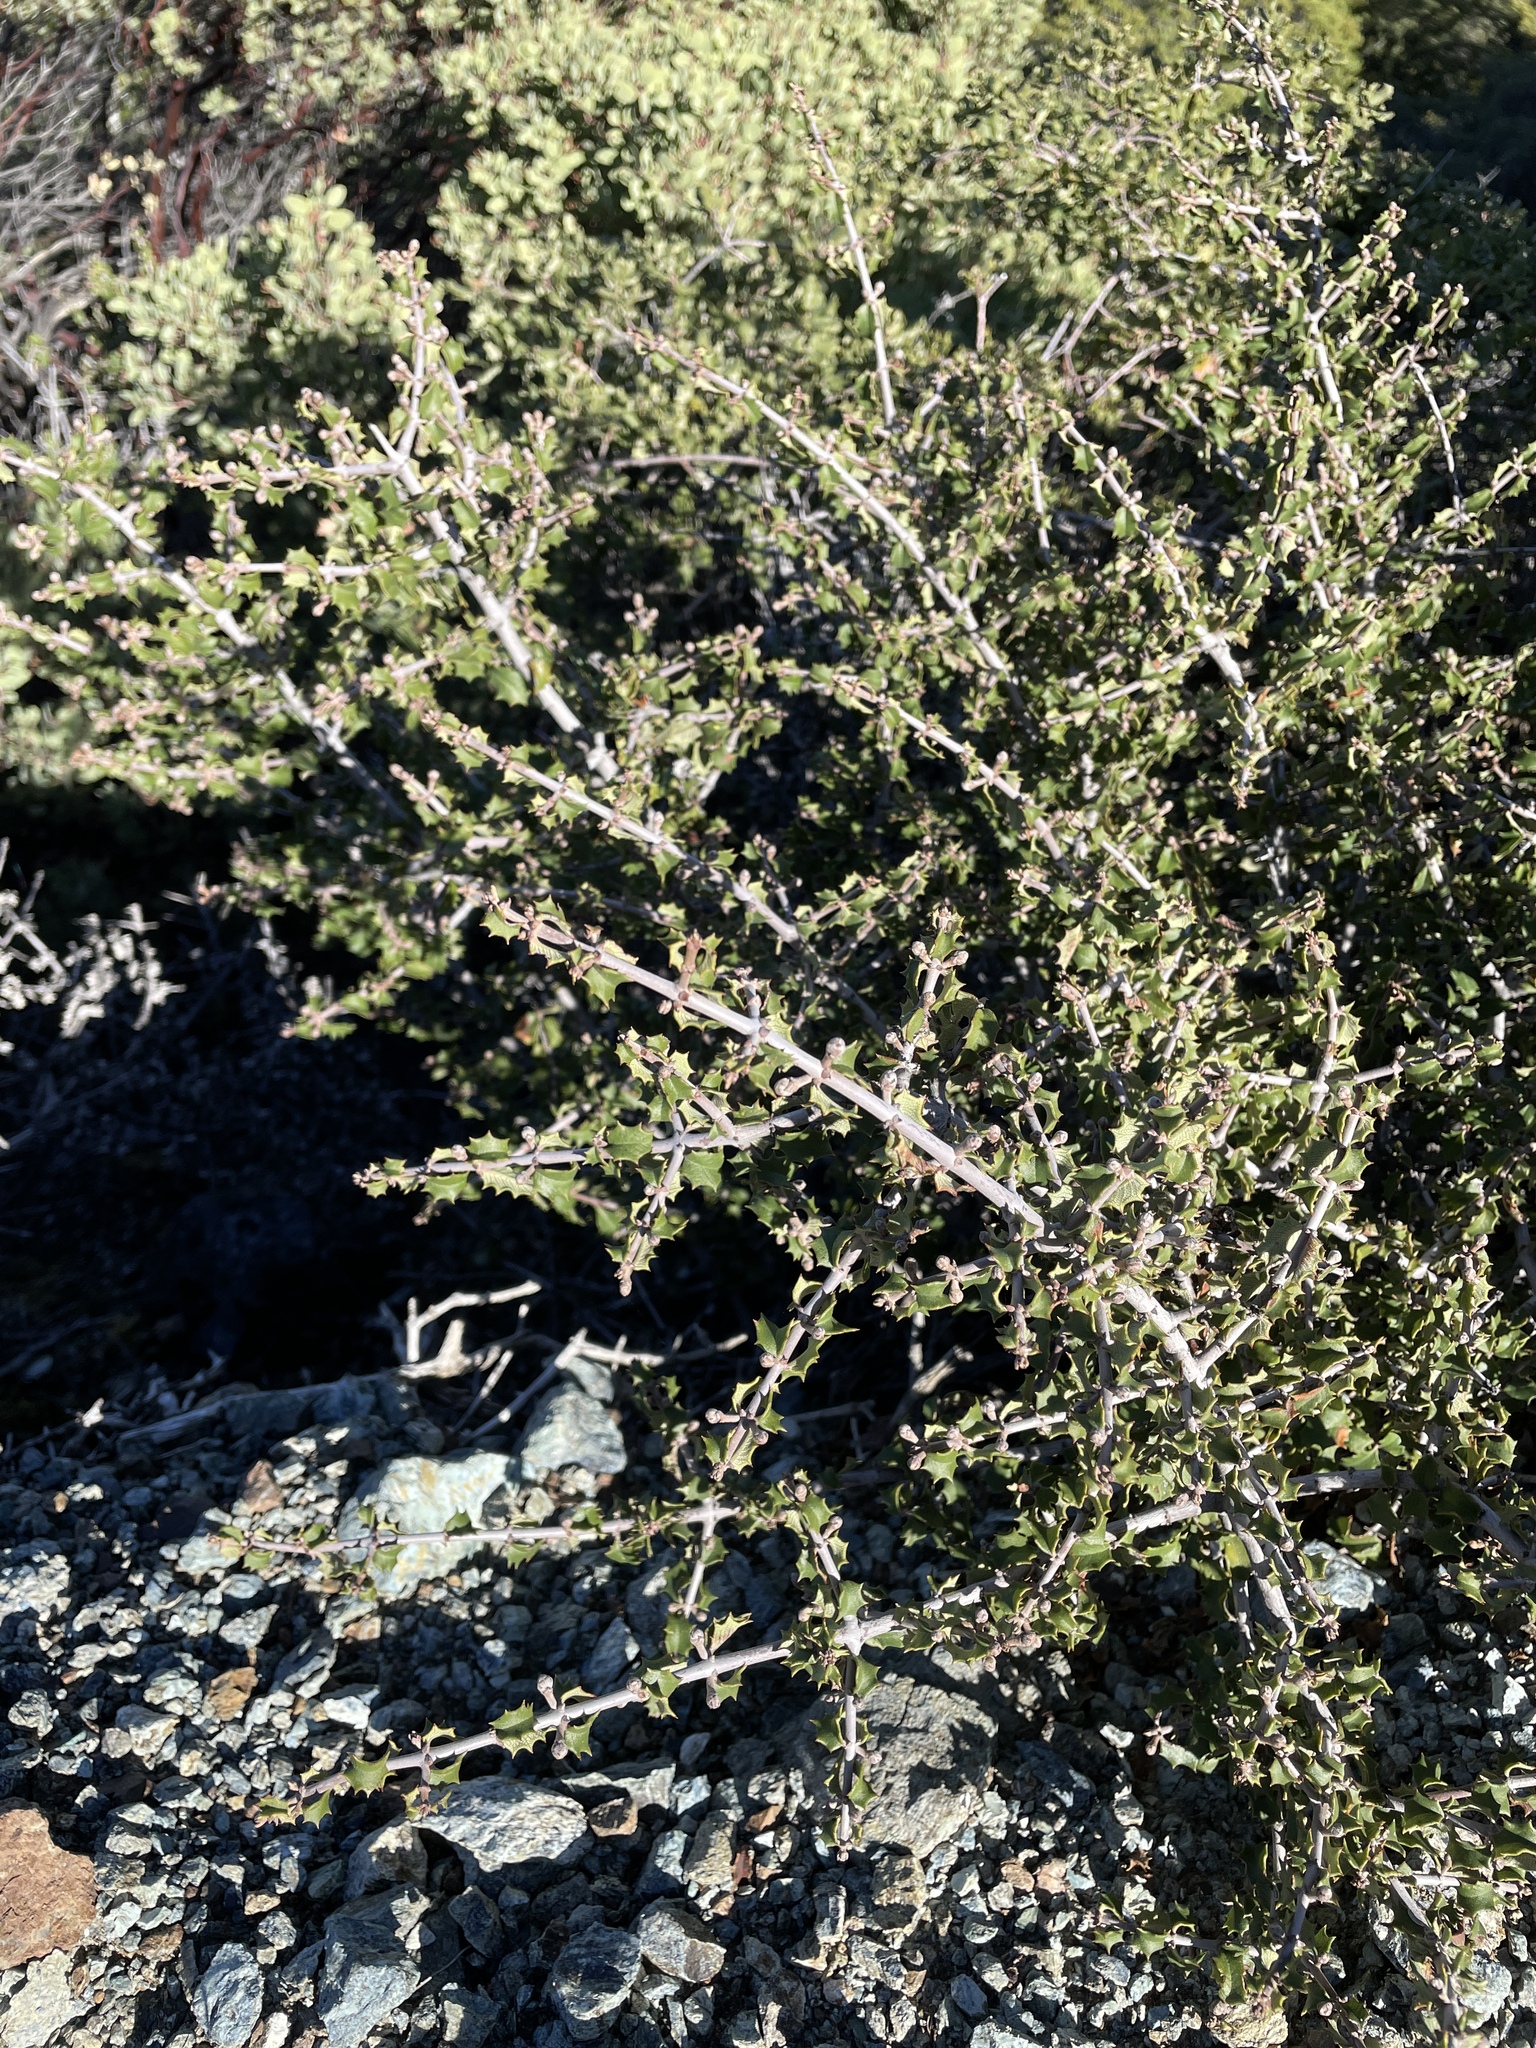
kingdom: Plantae
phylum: Tracheophyta
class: Magnoliopsida
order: Rosales
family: Rhamnaceae
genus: Ceanothus
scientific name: Ceanothus jepsonii
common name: Muskbrush
